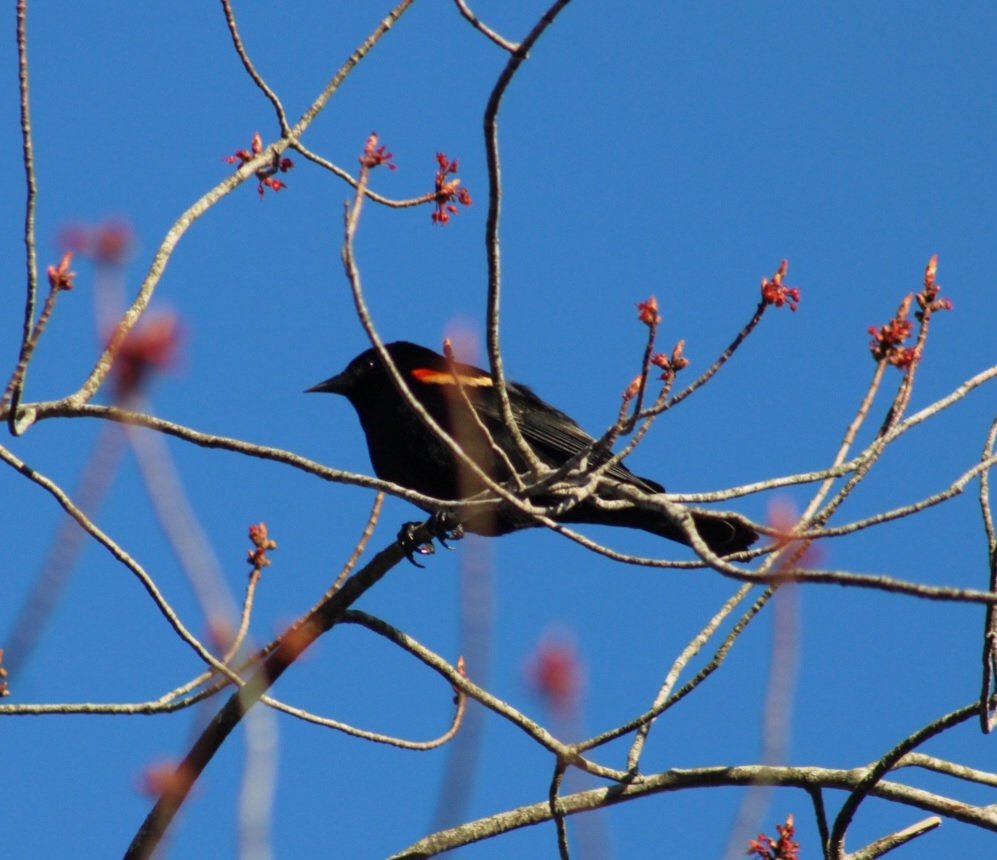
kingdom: Animalia
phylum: Chordata
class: Aves
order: Passeriformes
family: Icteridae
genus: Agelaius
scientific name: Agelaius phoeniceus
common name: Red-winged blackbird
